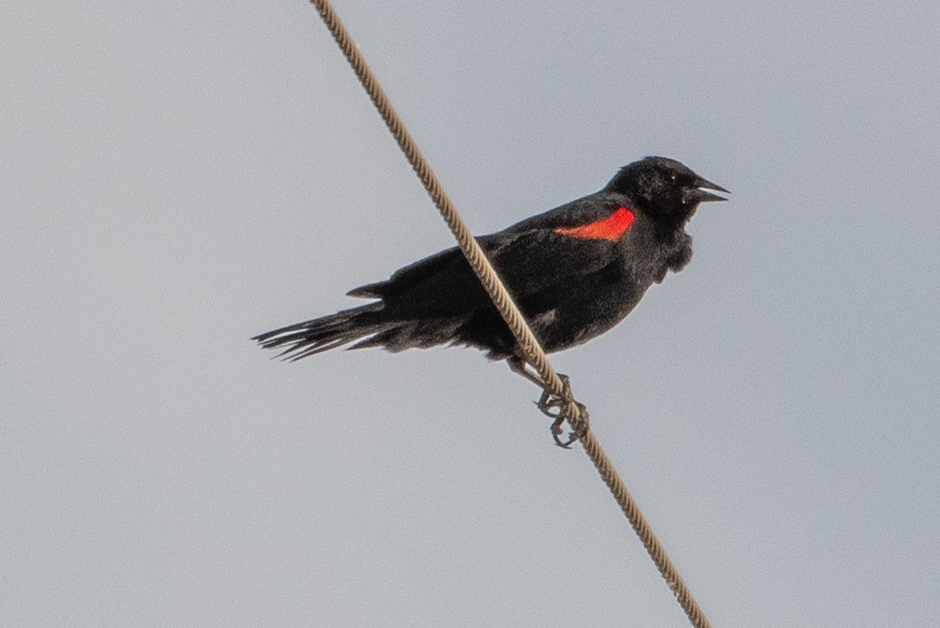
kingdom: Animalia
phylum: Chordata
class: Aves
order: Passeriformes
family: Icteridae
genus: Agelaius
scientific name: Agelaius phoeniceus
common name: Red-winged blackbird
